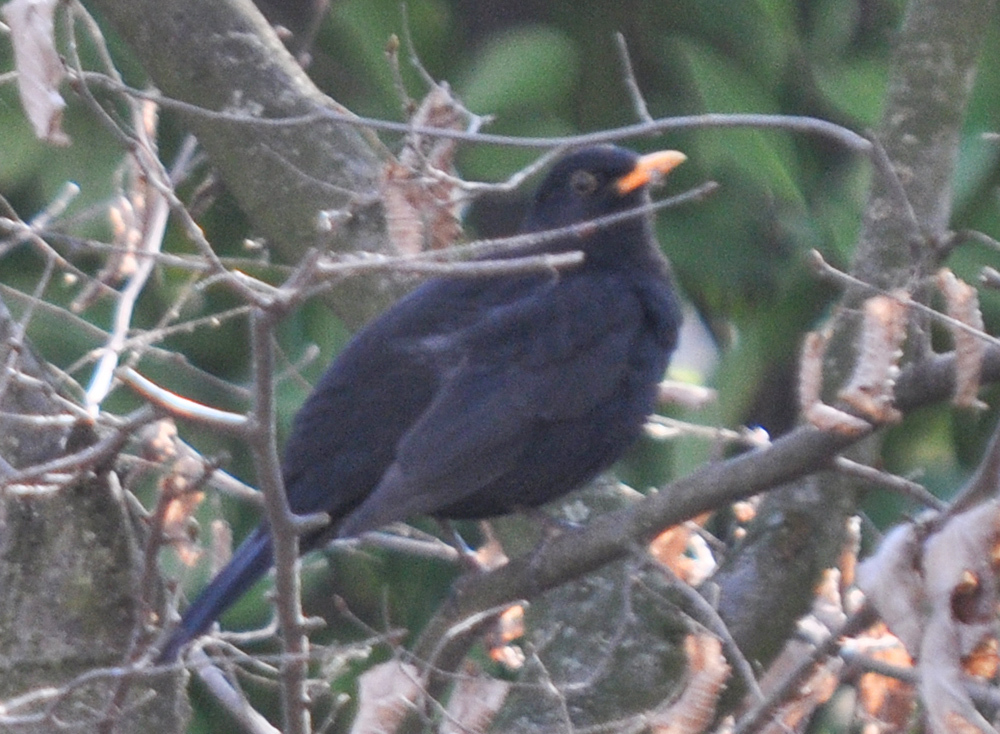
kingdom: Animalia
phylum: Chordata
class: Aves
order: Passeriformes
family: Turdidae
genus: Turdus
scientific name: Turdus merula
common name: Common blackbird
